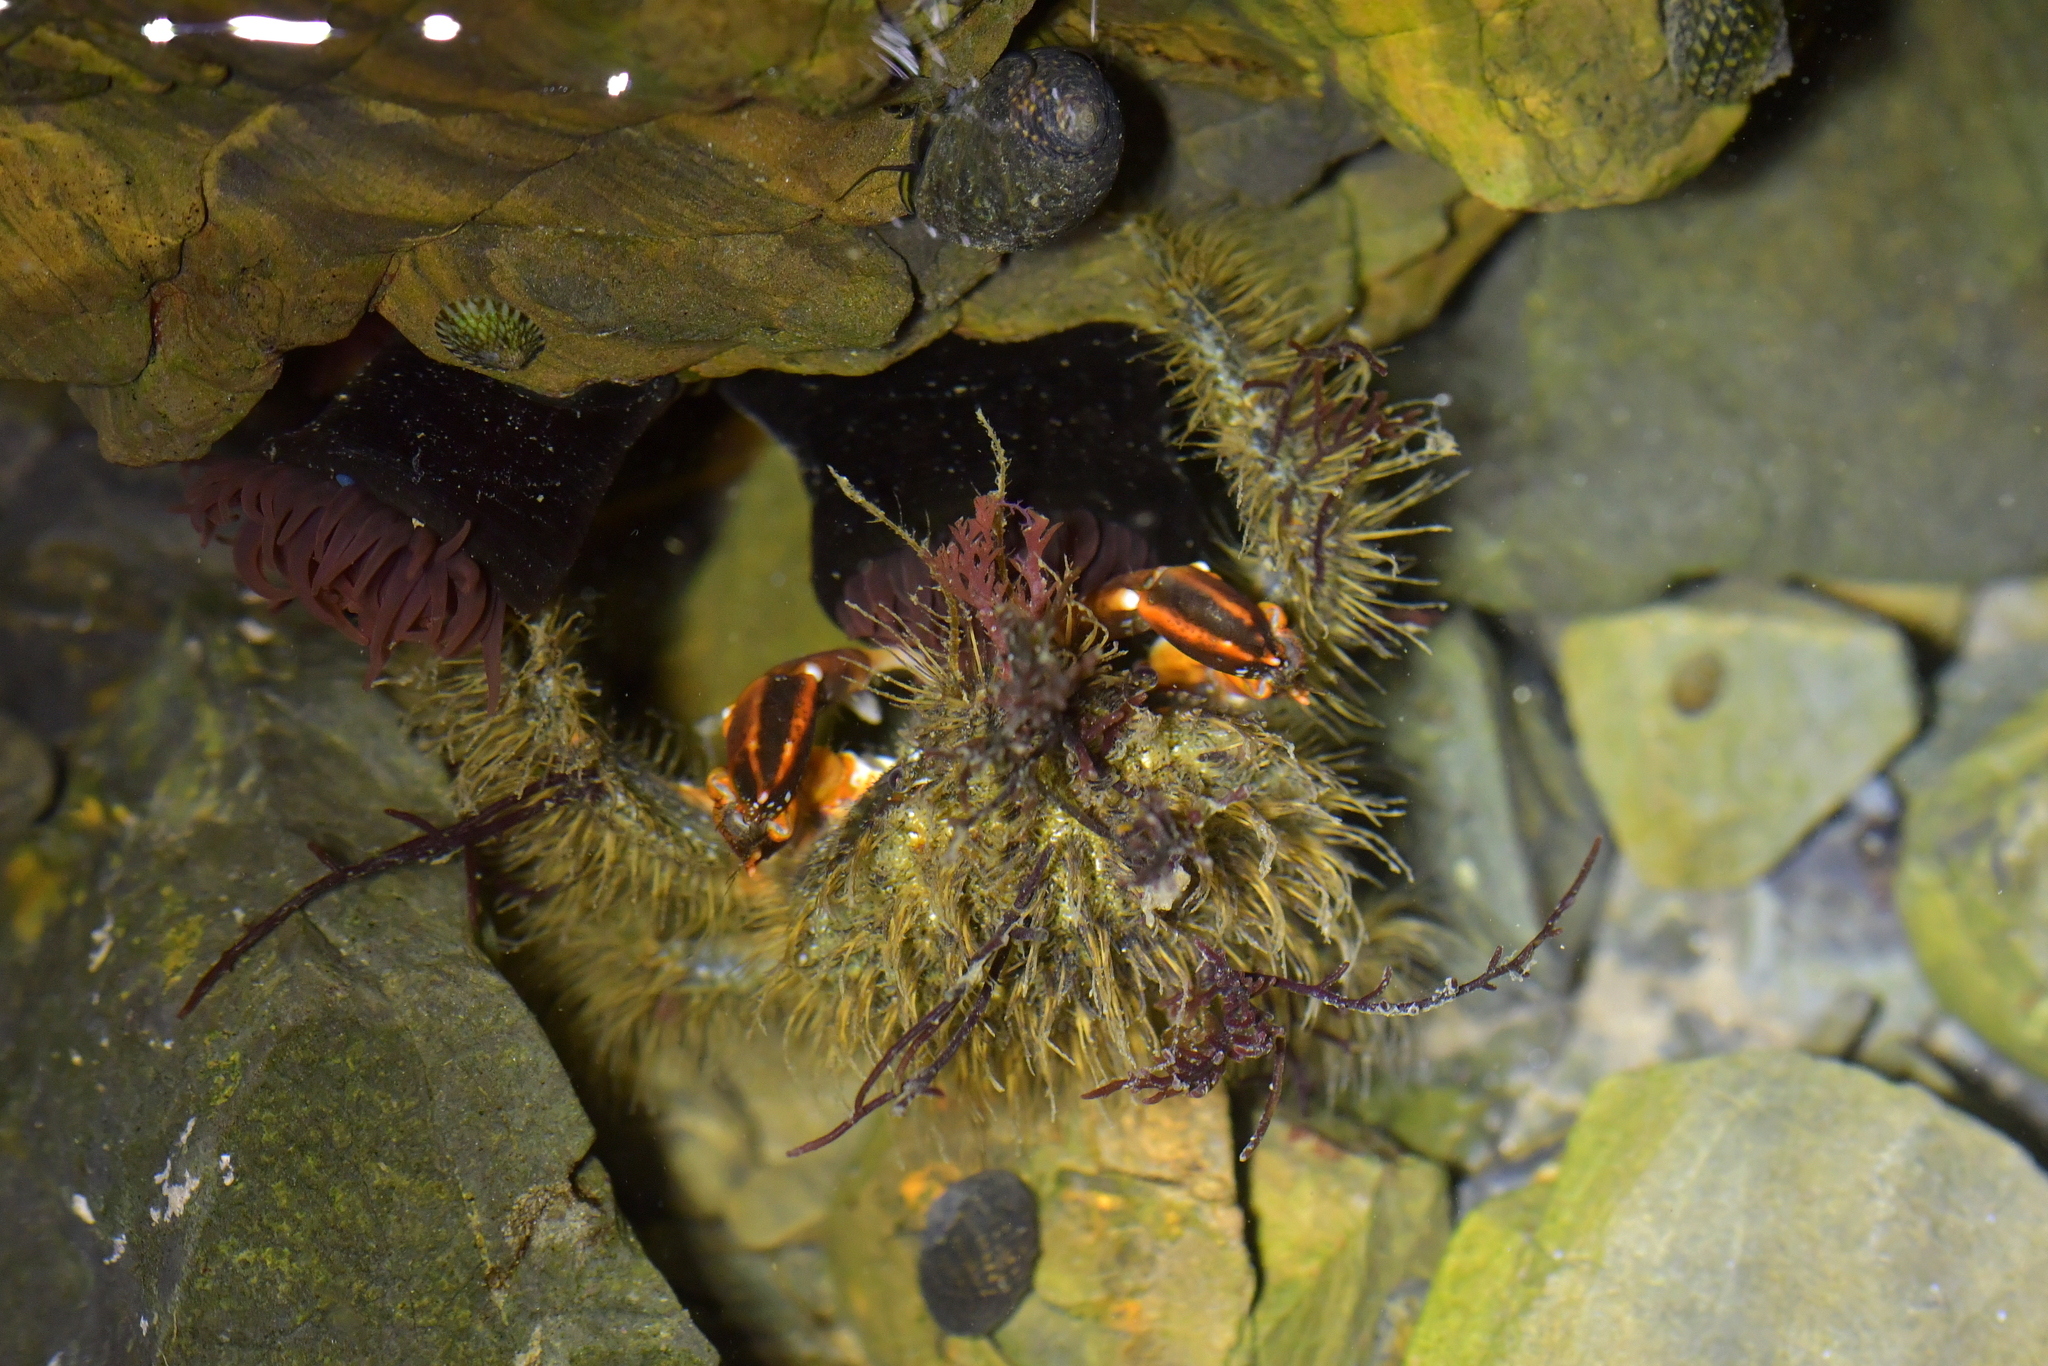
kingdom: Animalia
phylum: Arthropoda
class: Malacostraca
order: Decapoda
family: Majidae
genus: Notomithrax
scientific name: Notomithrax ursus
